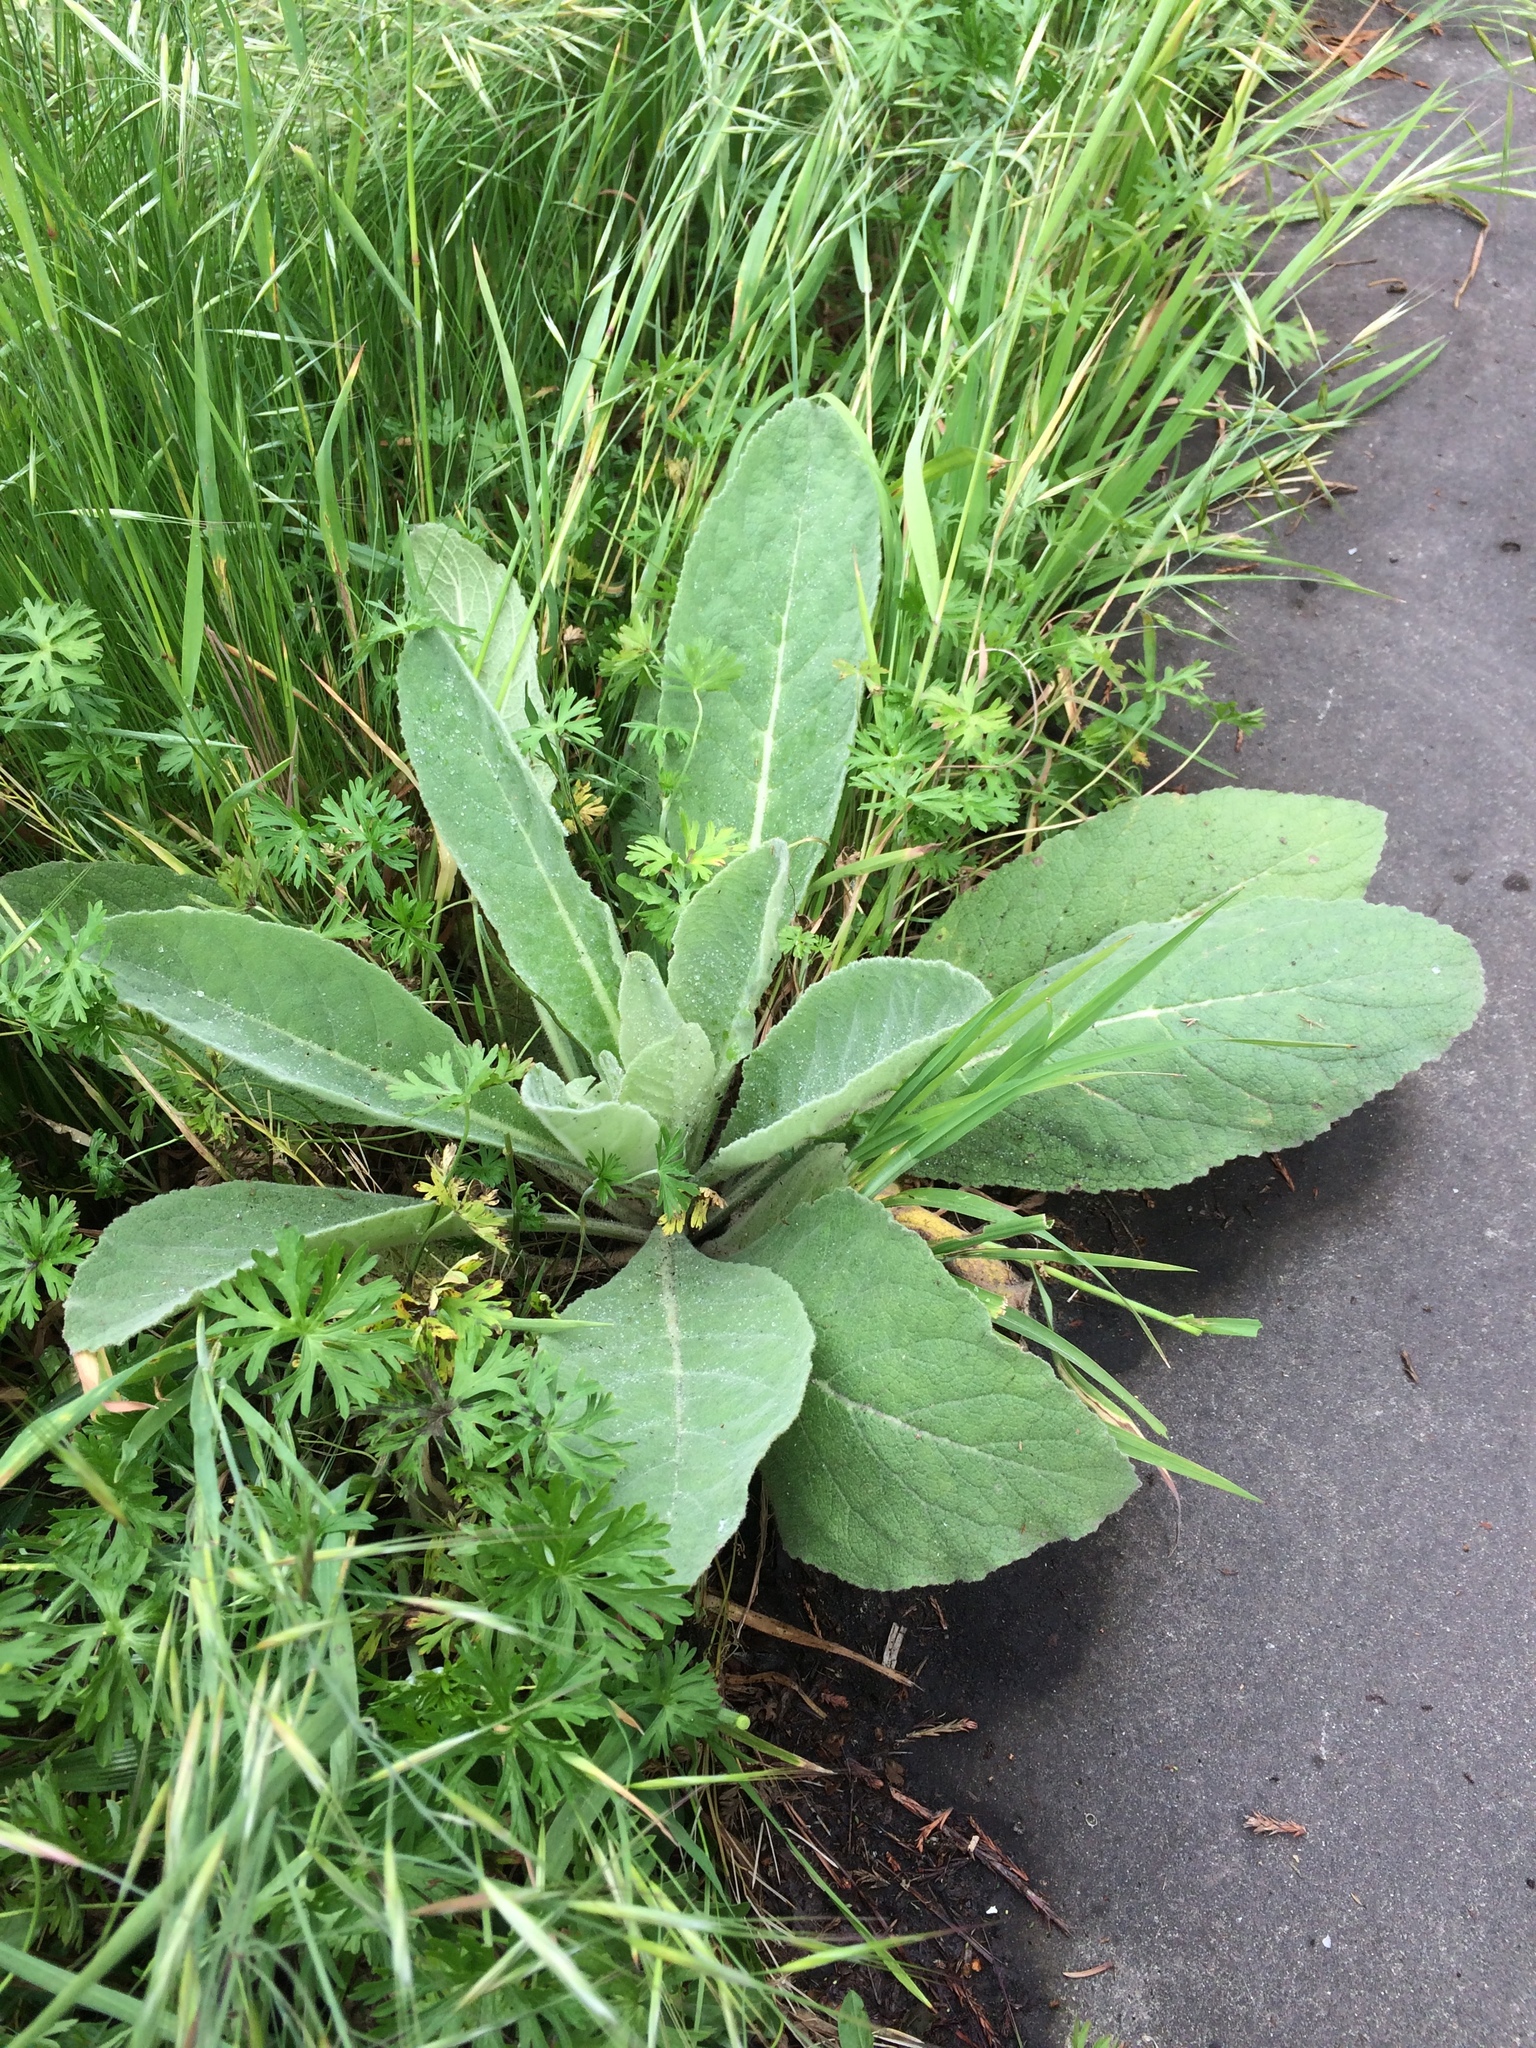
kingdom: Plantae
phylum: Tracheophyta
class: Magnoliopsida
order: Lamiales
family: Scrophulariaceae
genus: Verbascum
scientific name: Verbascum thapsus
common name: Common mullein
